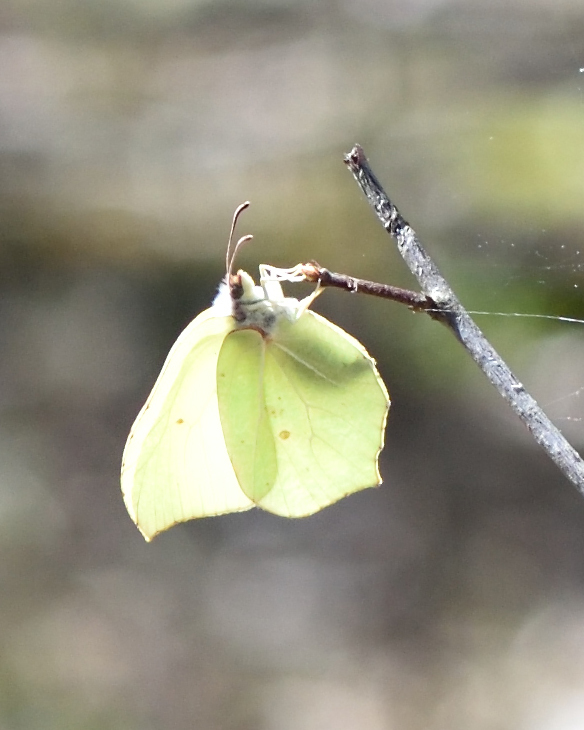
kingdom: Animalia
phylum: Arthropoda
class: Insecta
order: Lepidoptera
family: Pieridae
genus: Gonepteryx
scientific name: Gonepteryx rhamni
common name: Brimstone
